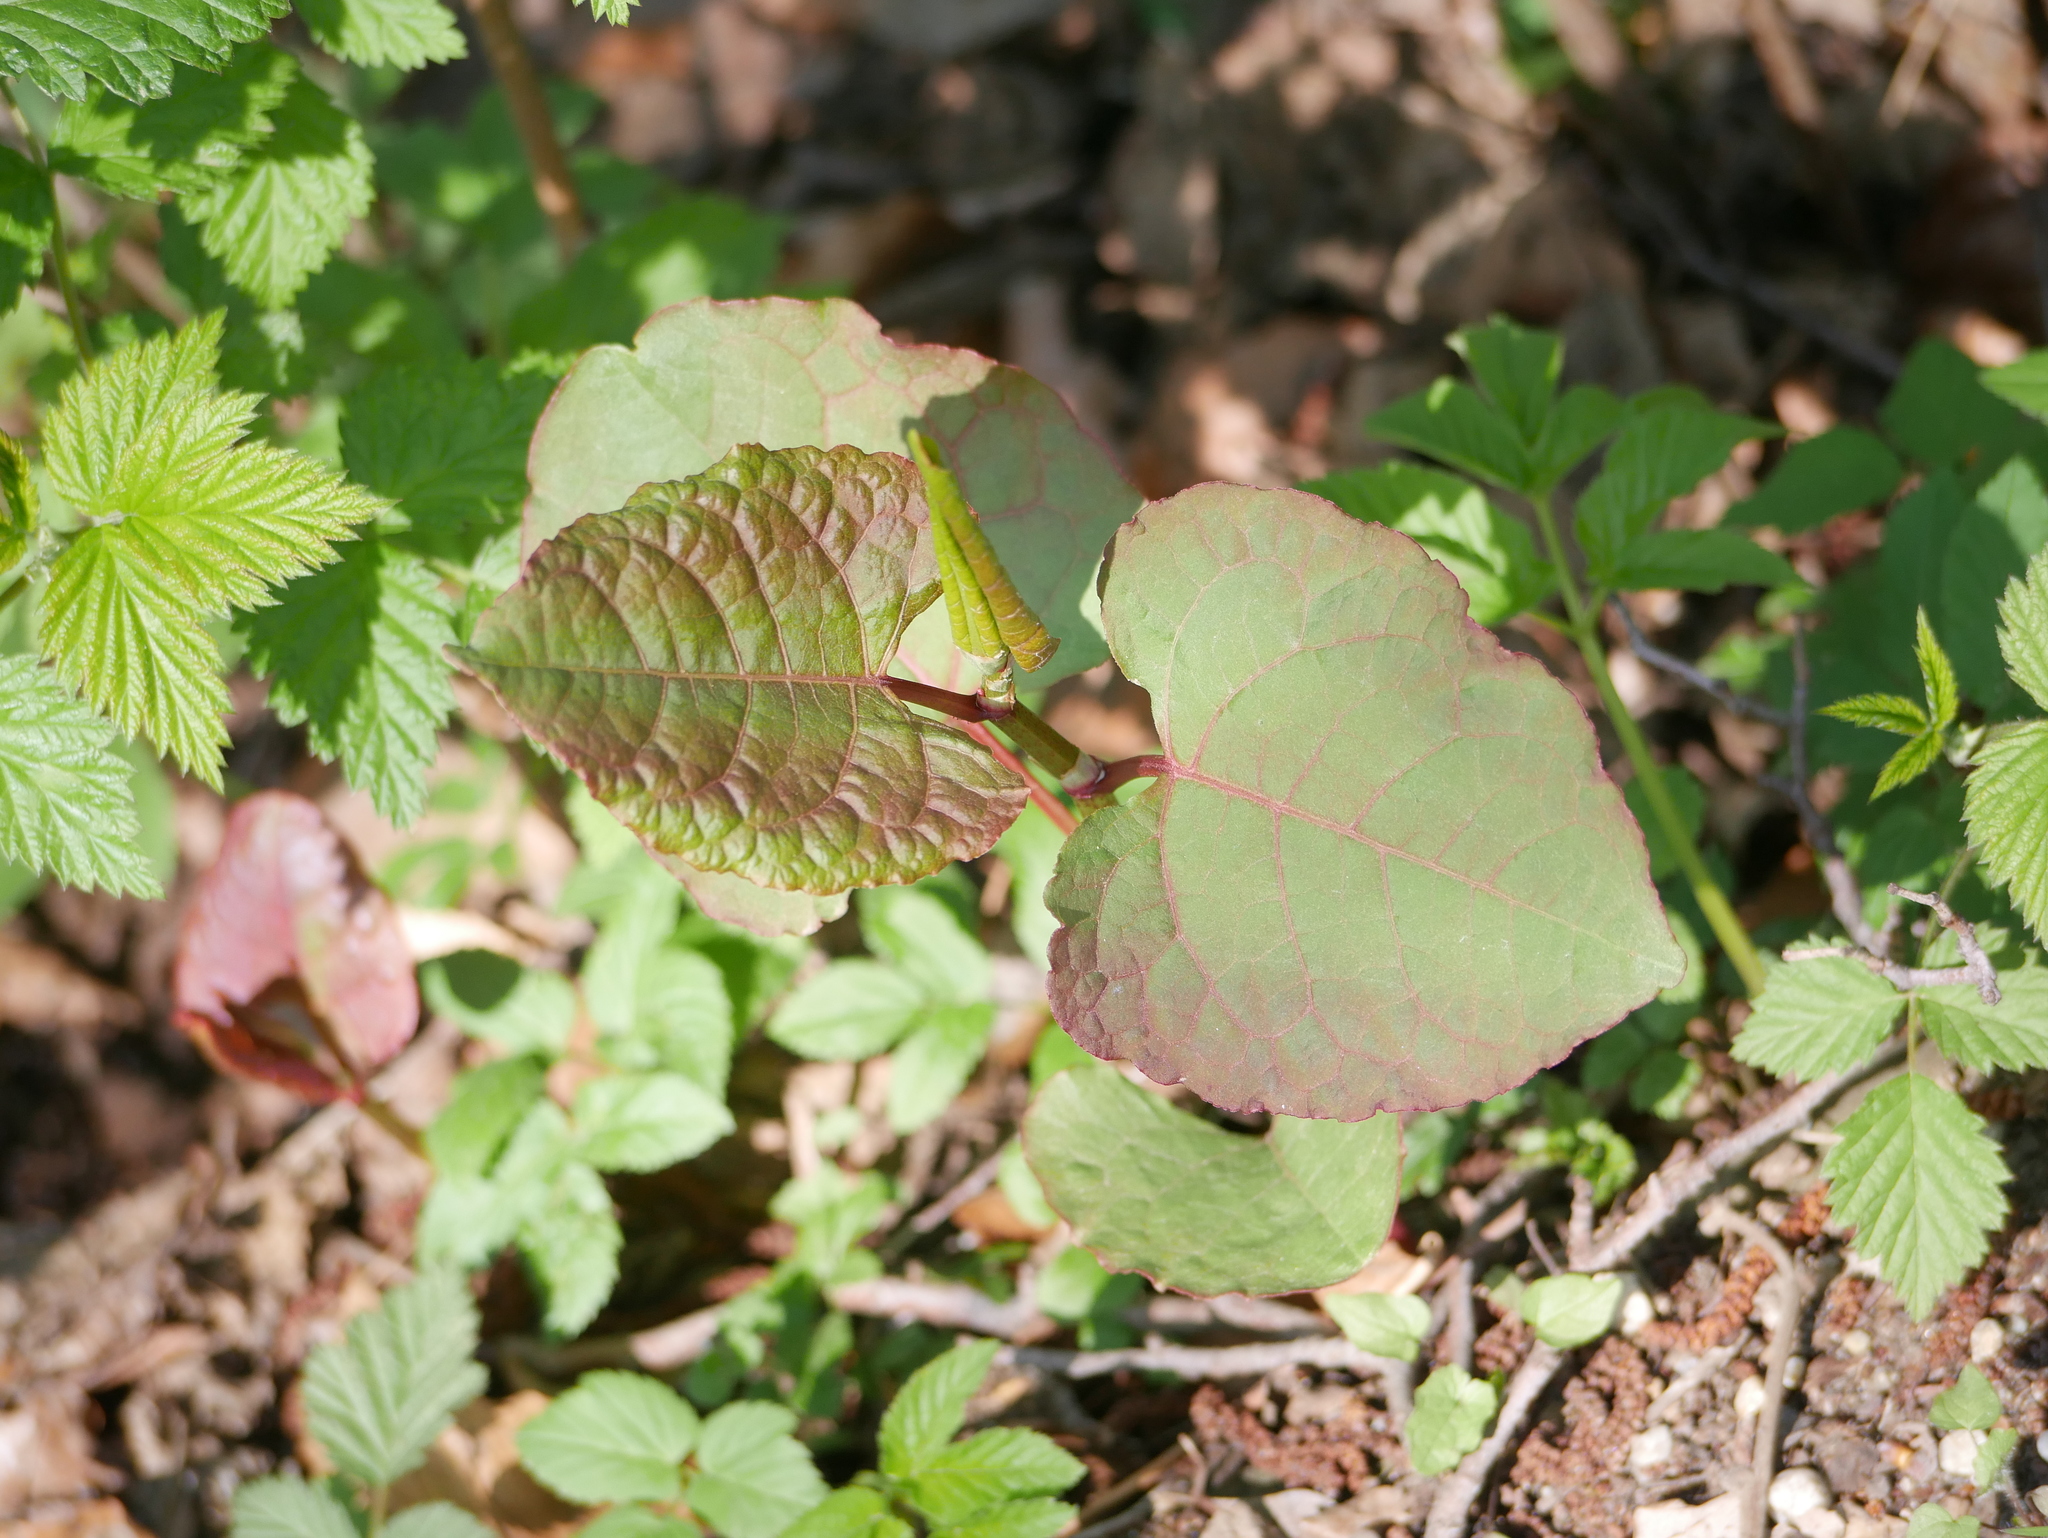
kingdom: Plantae
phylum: Tracheophyta
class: Magnoliopsida
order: Caryophyllales
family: Polygonaceae
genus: Reynoutria
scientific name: Reynoutria bohemica
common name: Bohemian knotweed
